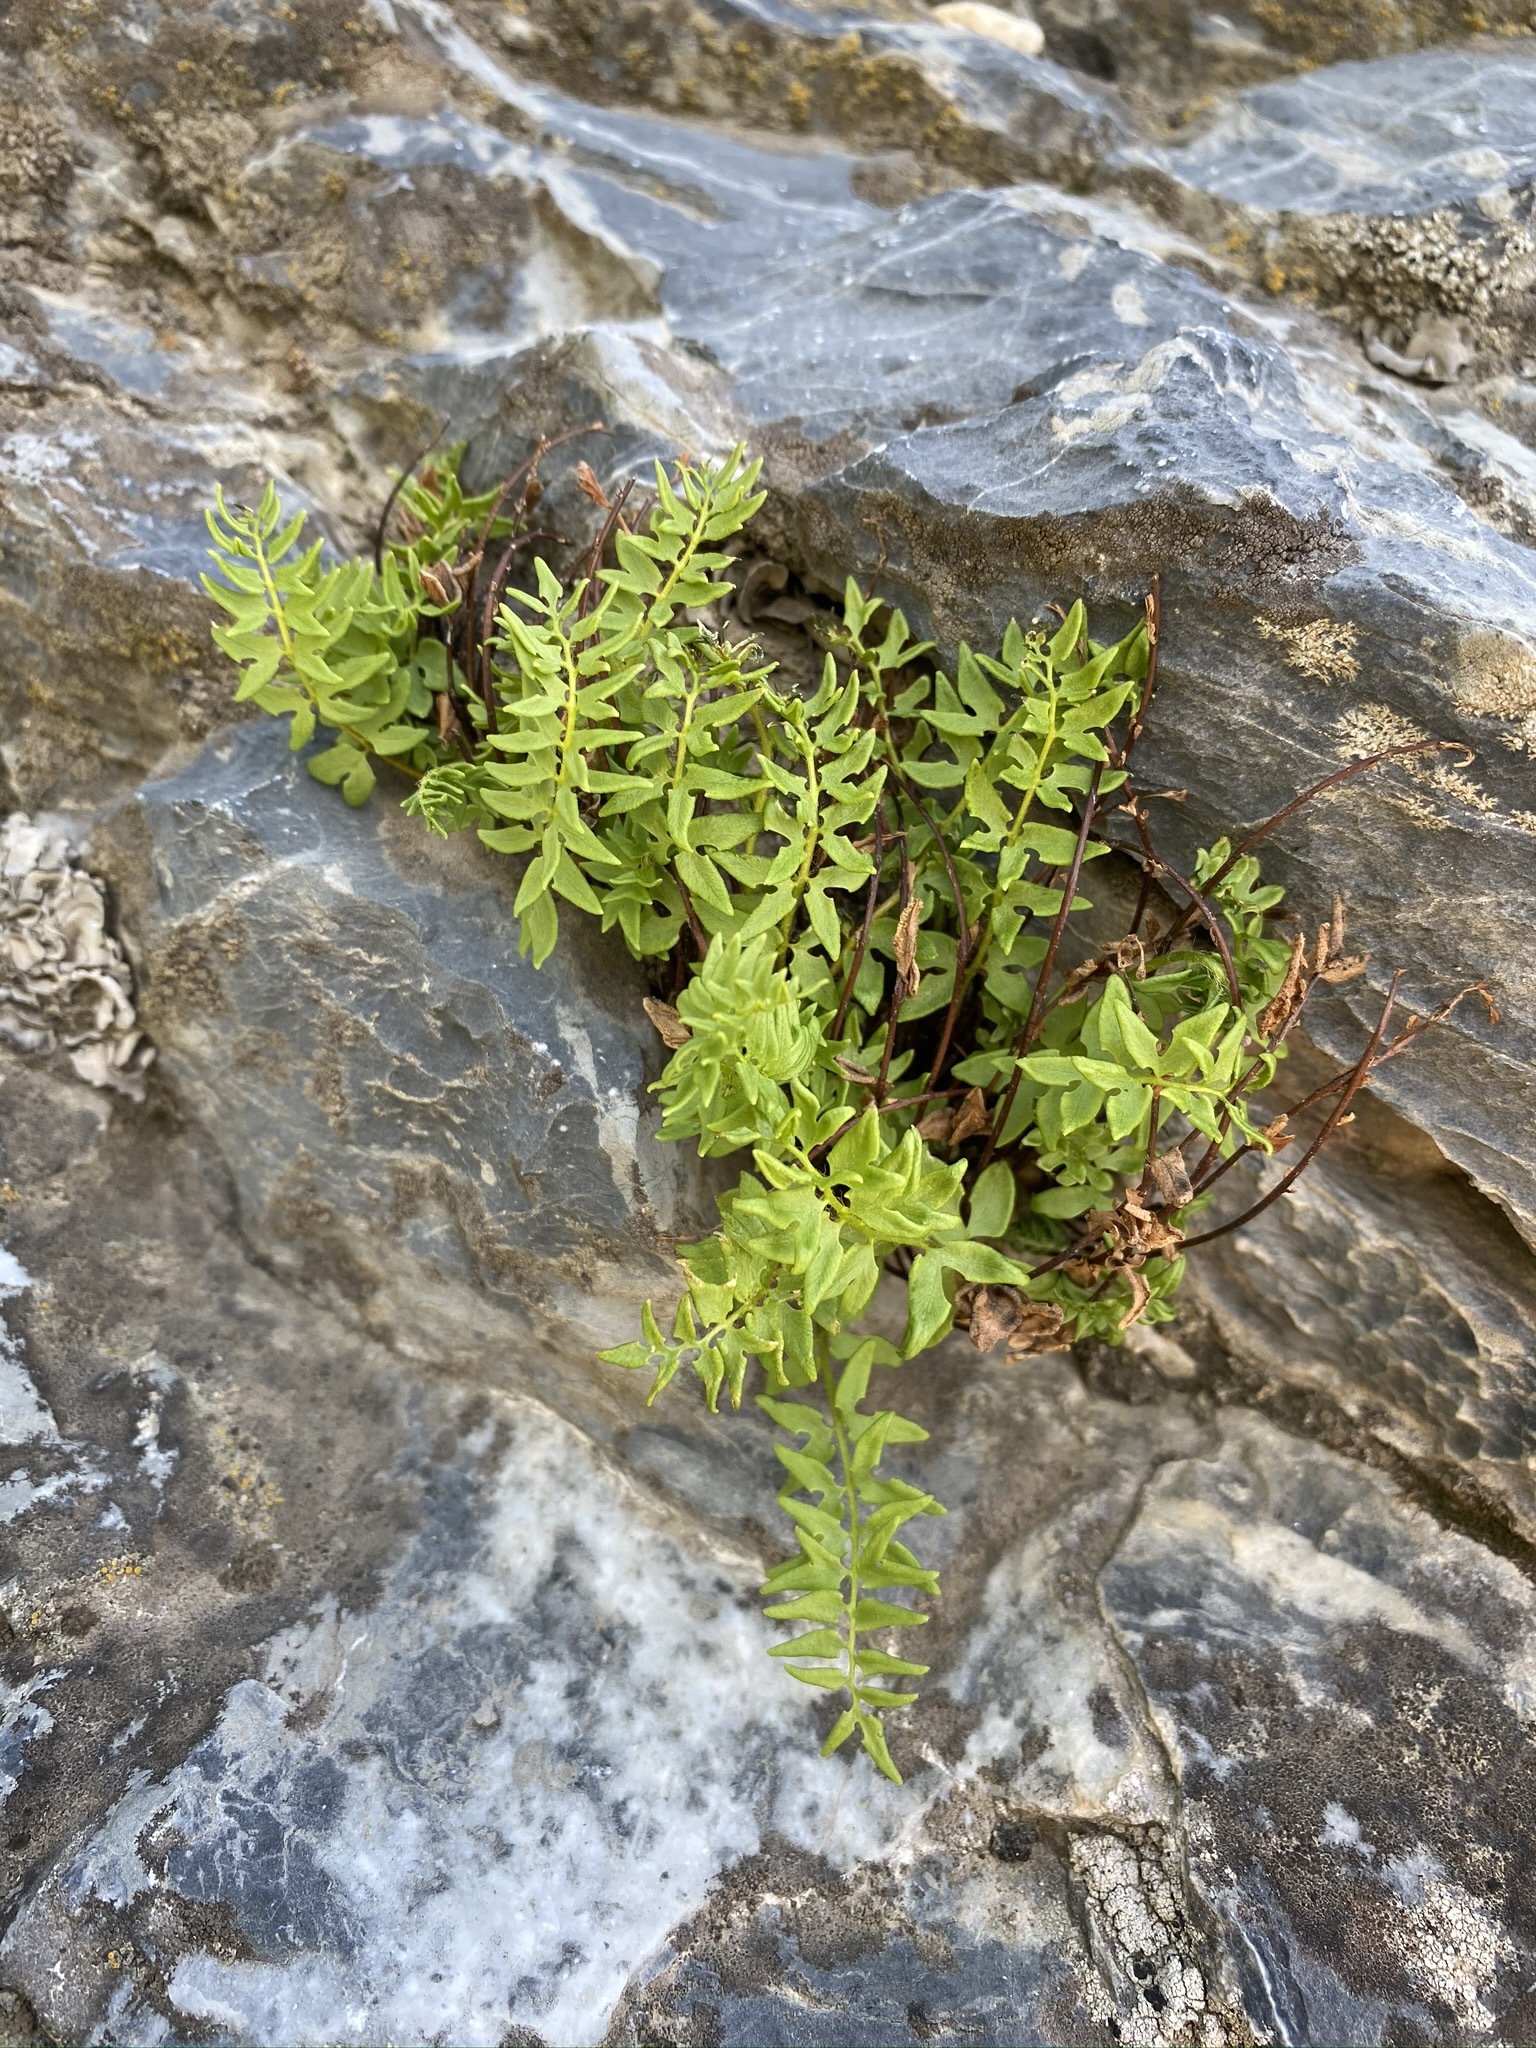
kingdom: Plantae
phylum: Tracheophyta
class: Polypodiopsida
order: Polypodiales
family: Pteridaceae
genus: Pellaea
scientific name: Pellaea breweri
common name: Brewer's cliffbrake
